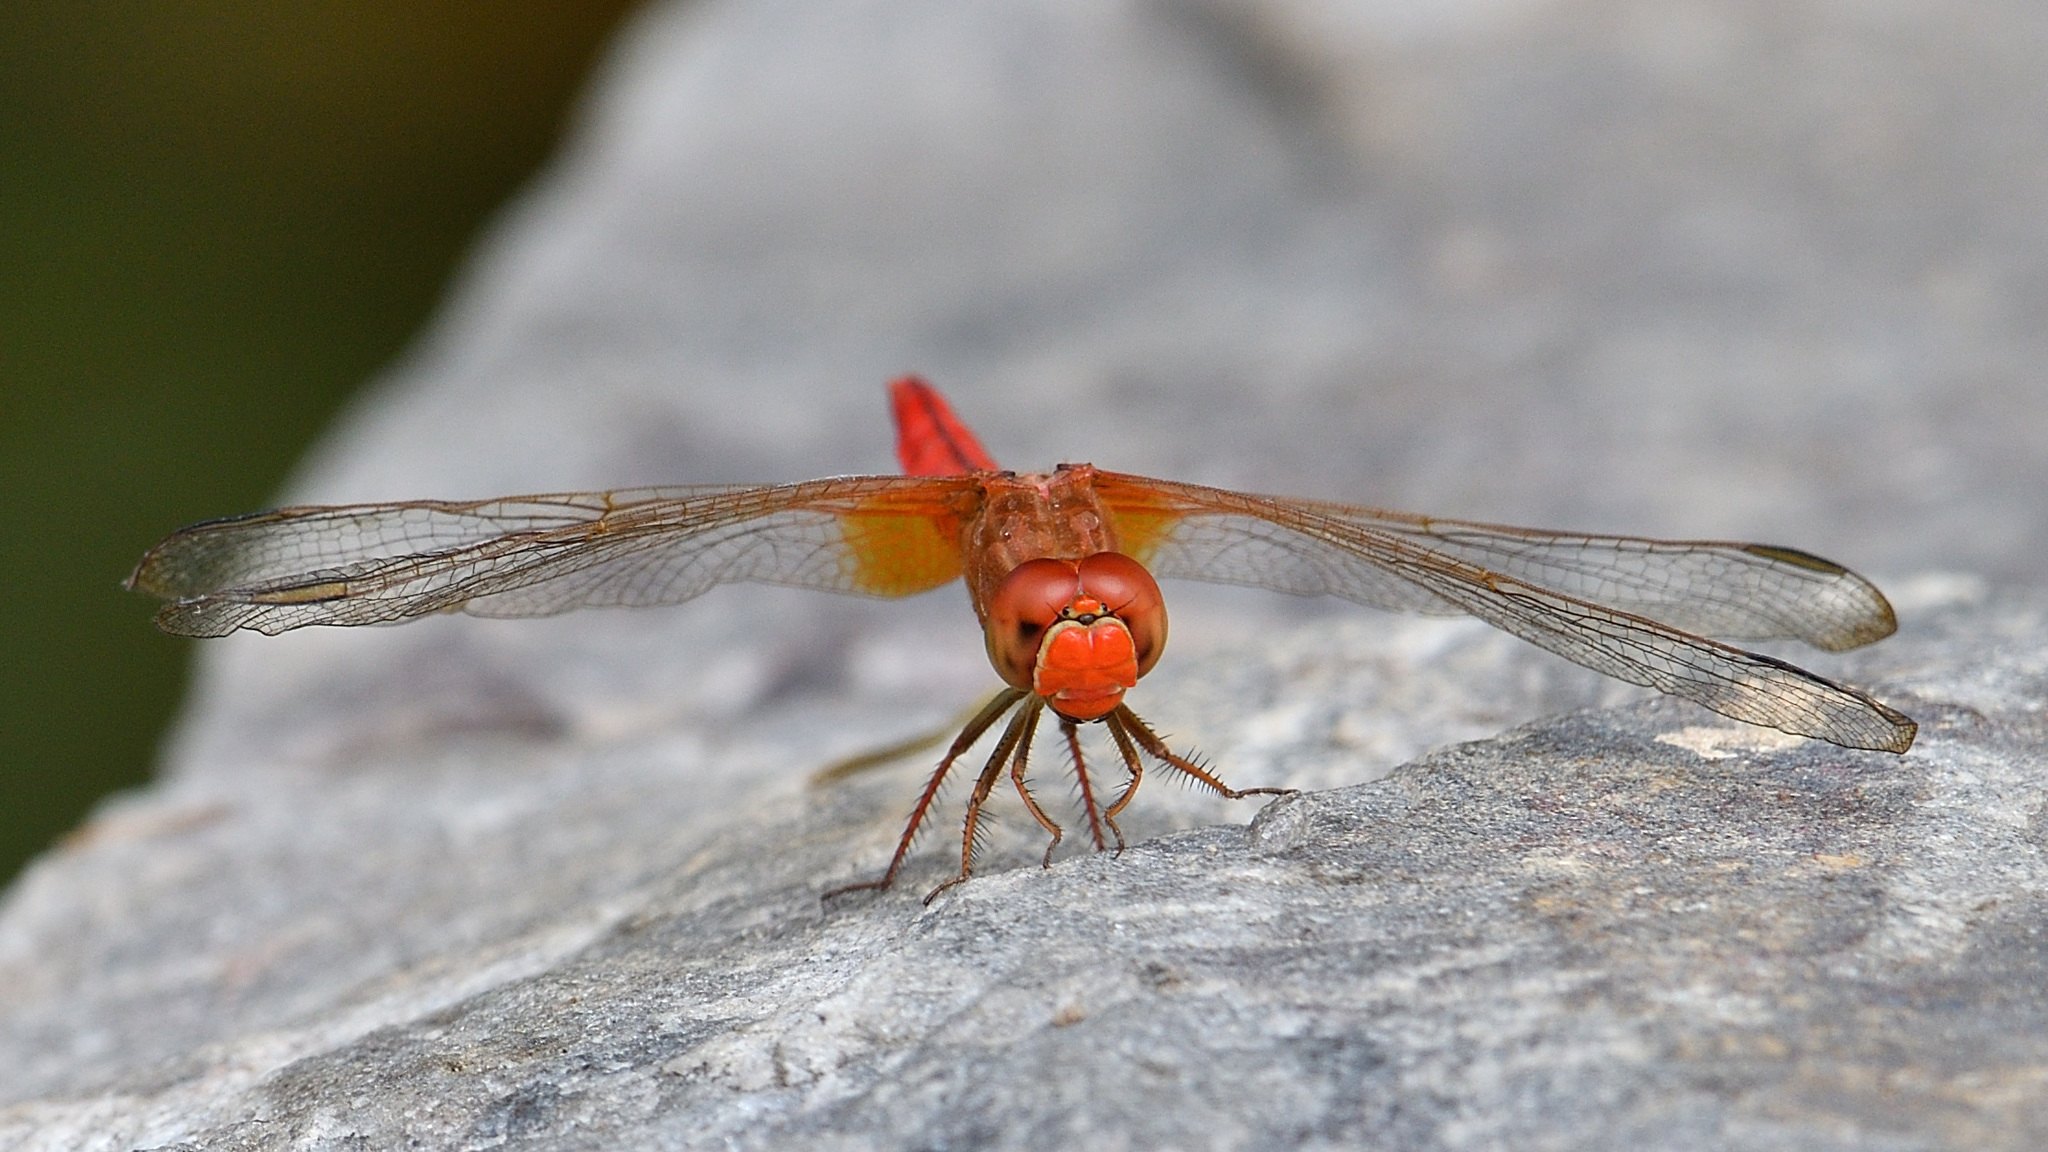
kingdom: Animalia
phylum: Arthropoda
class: Insecta
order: Odonata
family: Libellulidae
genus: Crocothemis
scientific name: Crocothemis servilia
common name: Scarlet skimmer
